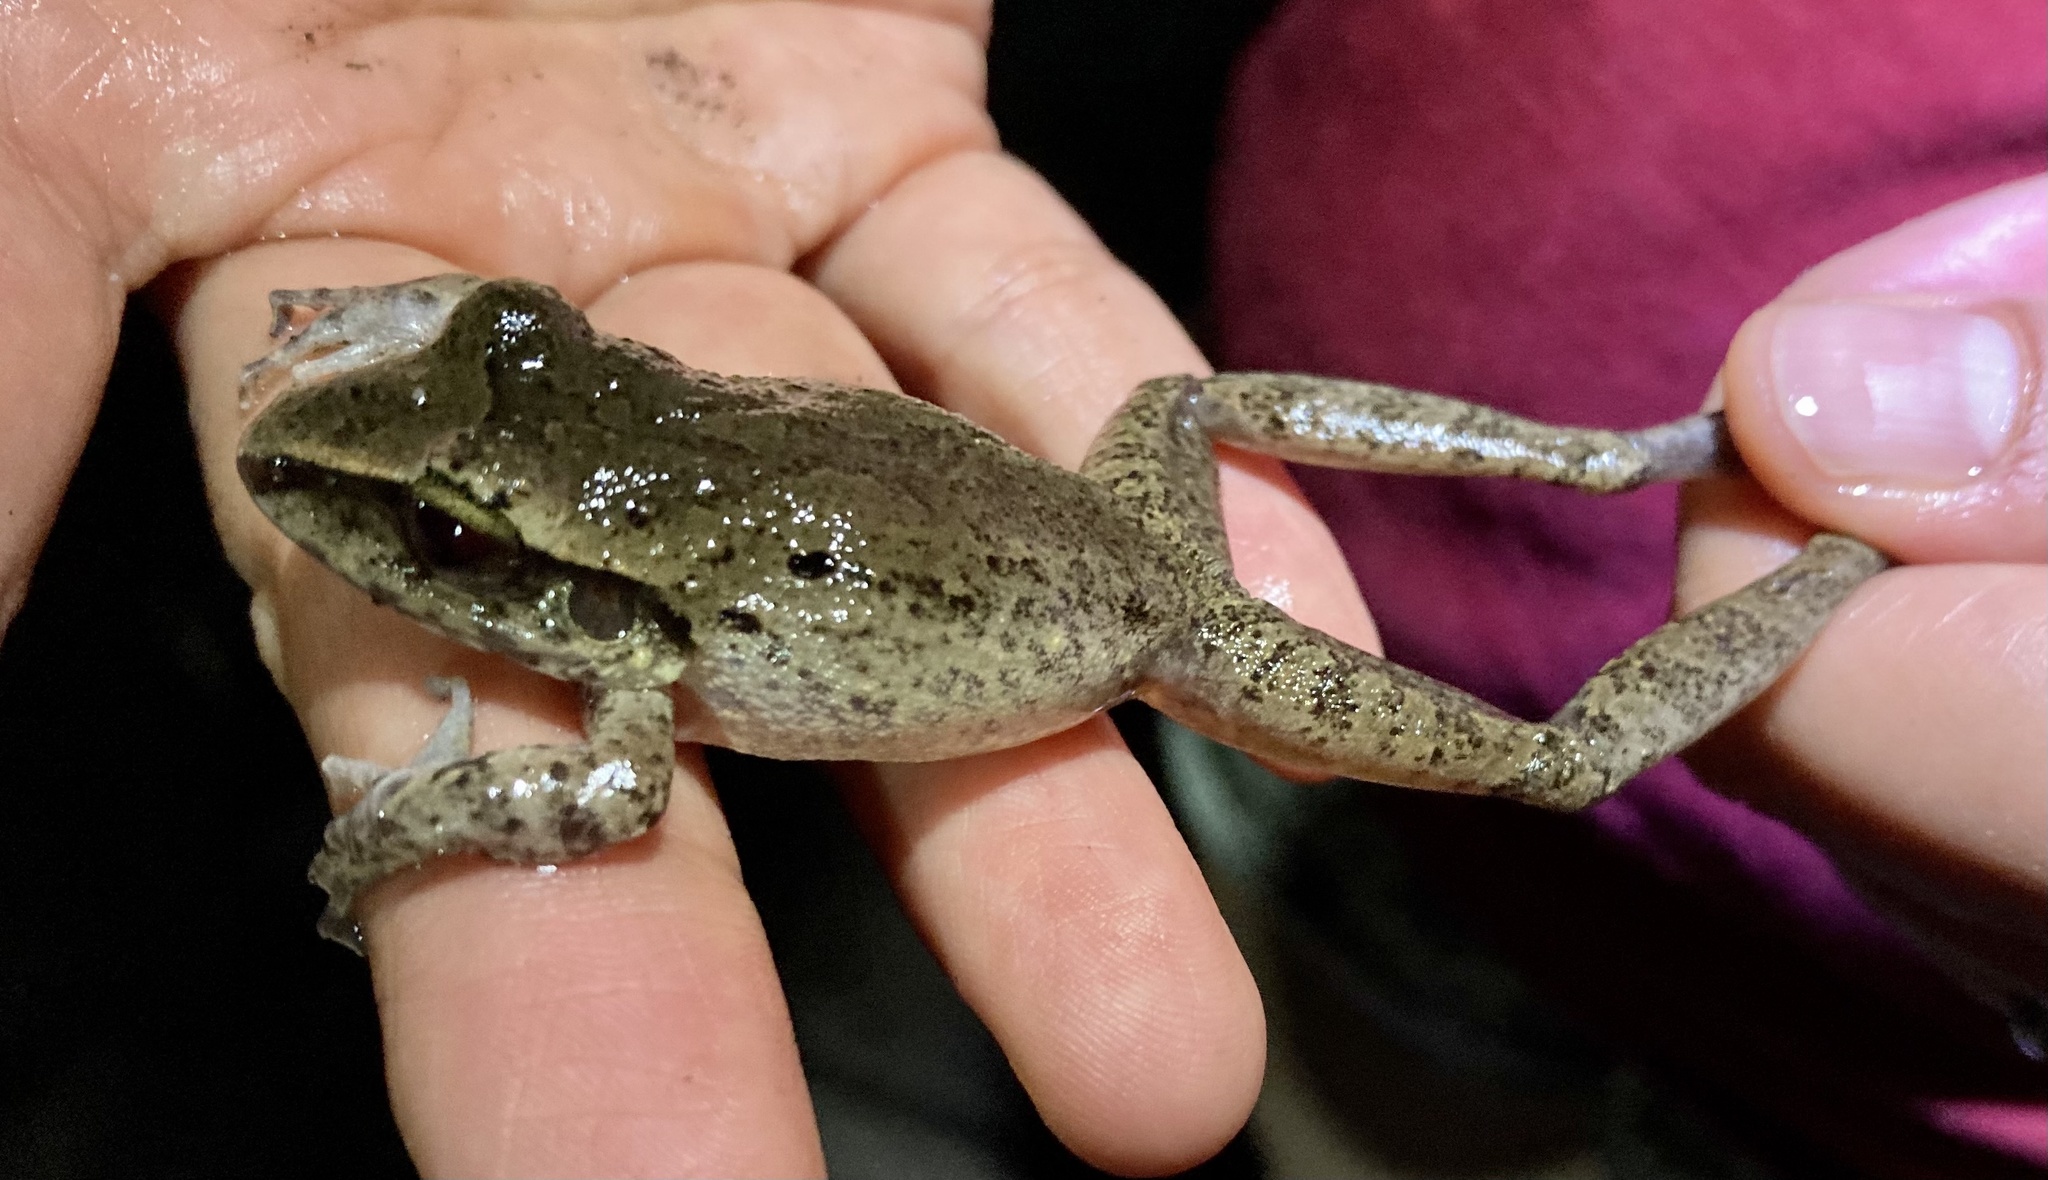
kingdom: Animalia
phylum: Chordata
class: Amphibia
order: Anura
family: Craugastoridae
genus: Craugastor
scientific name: Craugastor raniformis
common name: Robber frog
